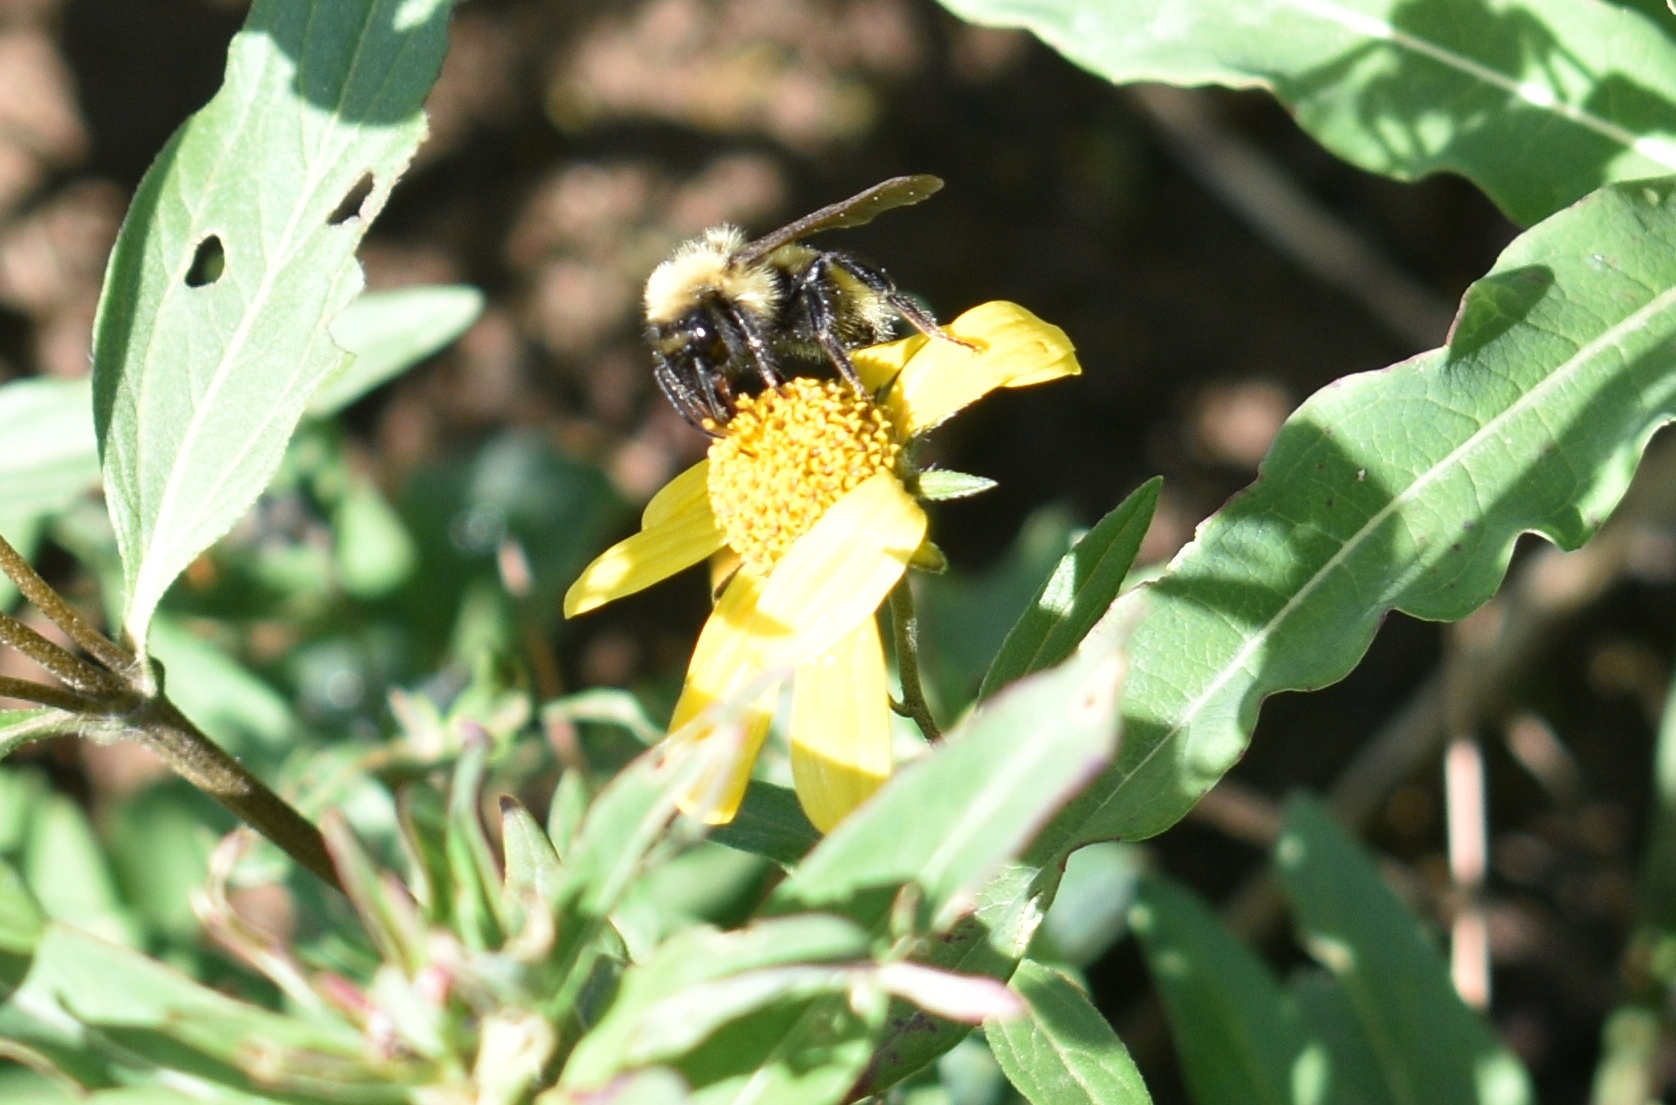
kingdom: Animalia
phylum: Arthropoda
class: Insecta
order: Hymenoptera
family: Apidae
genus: Pyrobombus
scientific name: Pyrobombus
